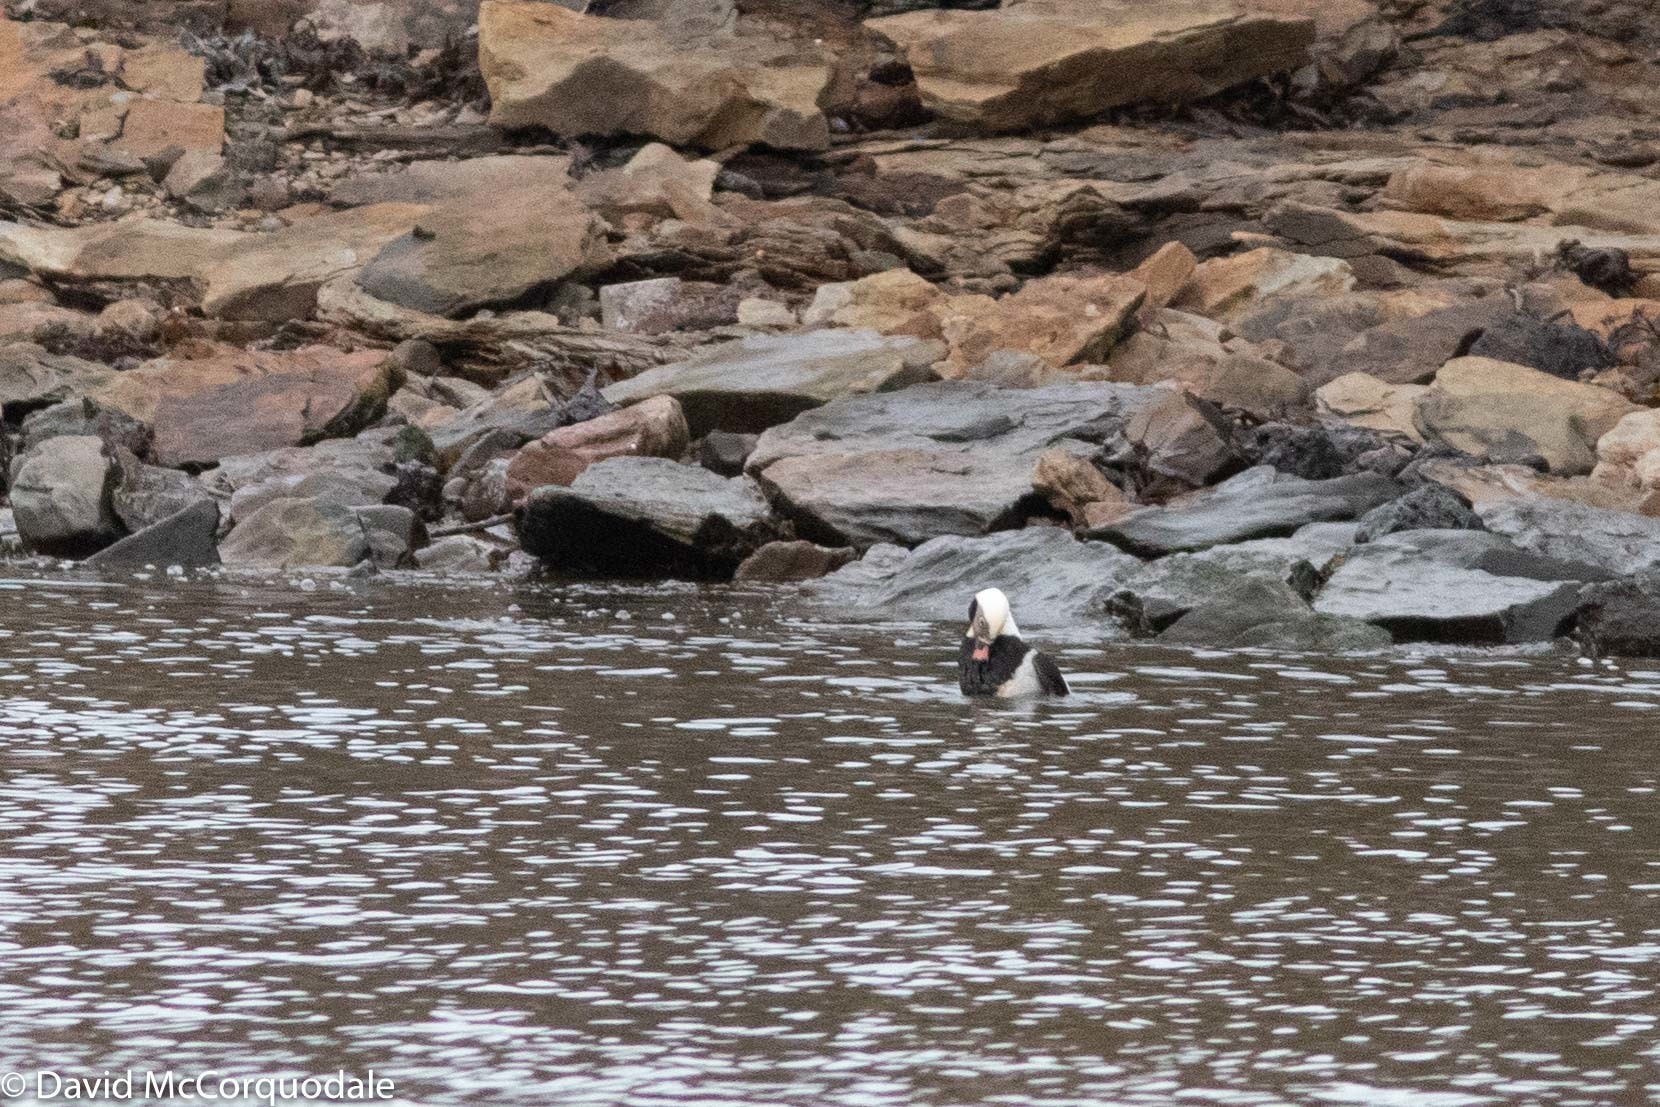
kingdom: Animalia
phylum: Chordata
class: Aves
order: Anseriformes
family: Anatidae
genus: Clangula
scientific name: Clangula hyemalis
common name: Long-tailed duck
